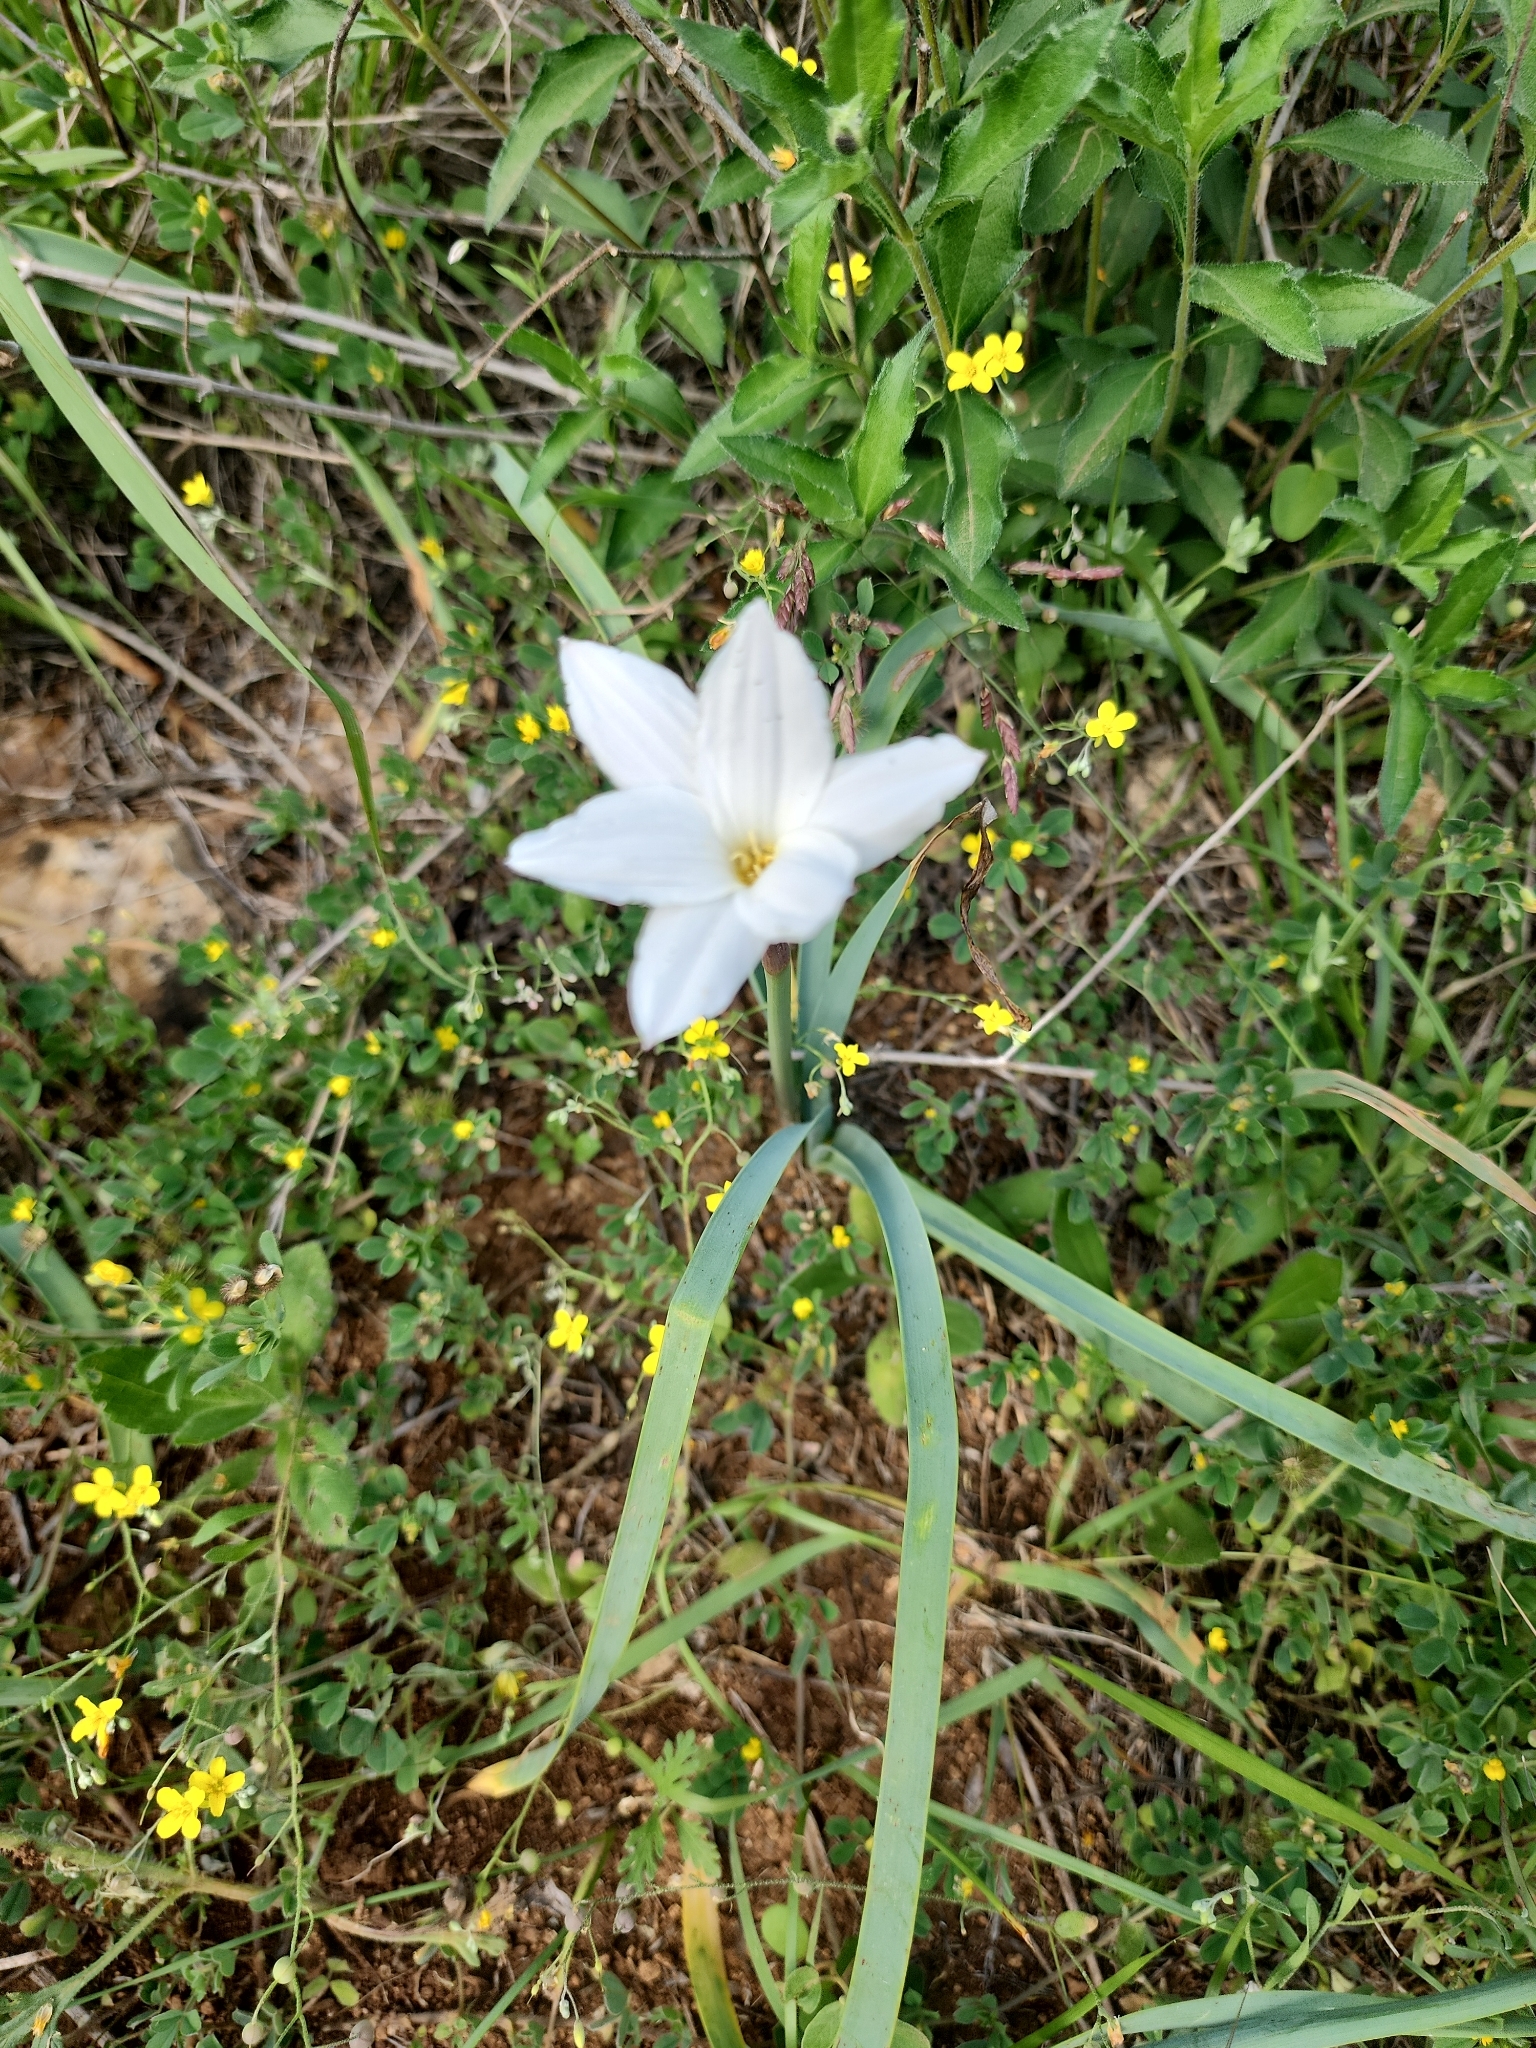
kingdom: Plantae
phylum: Tracheophyta
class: Liliopsida
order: Asparagales
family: Amaryllidaceae
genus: Zephyranthes
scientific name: Zephyranthes drummondii
